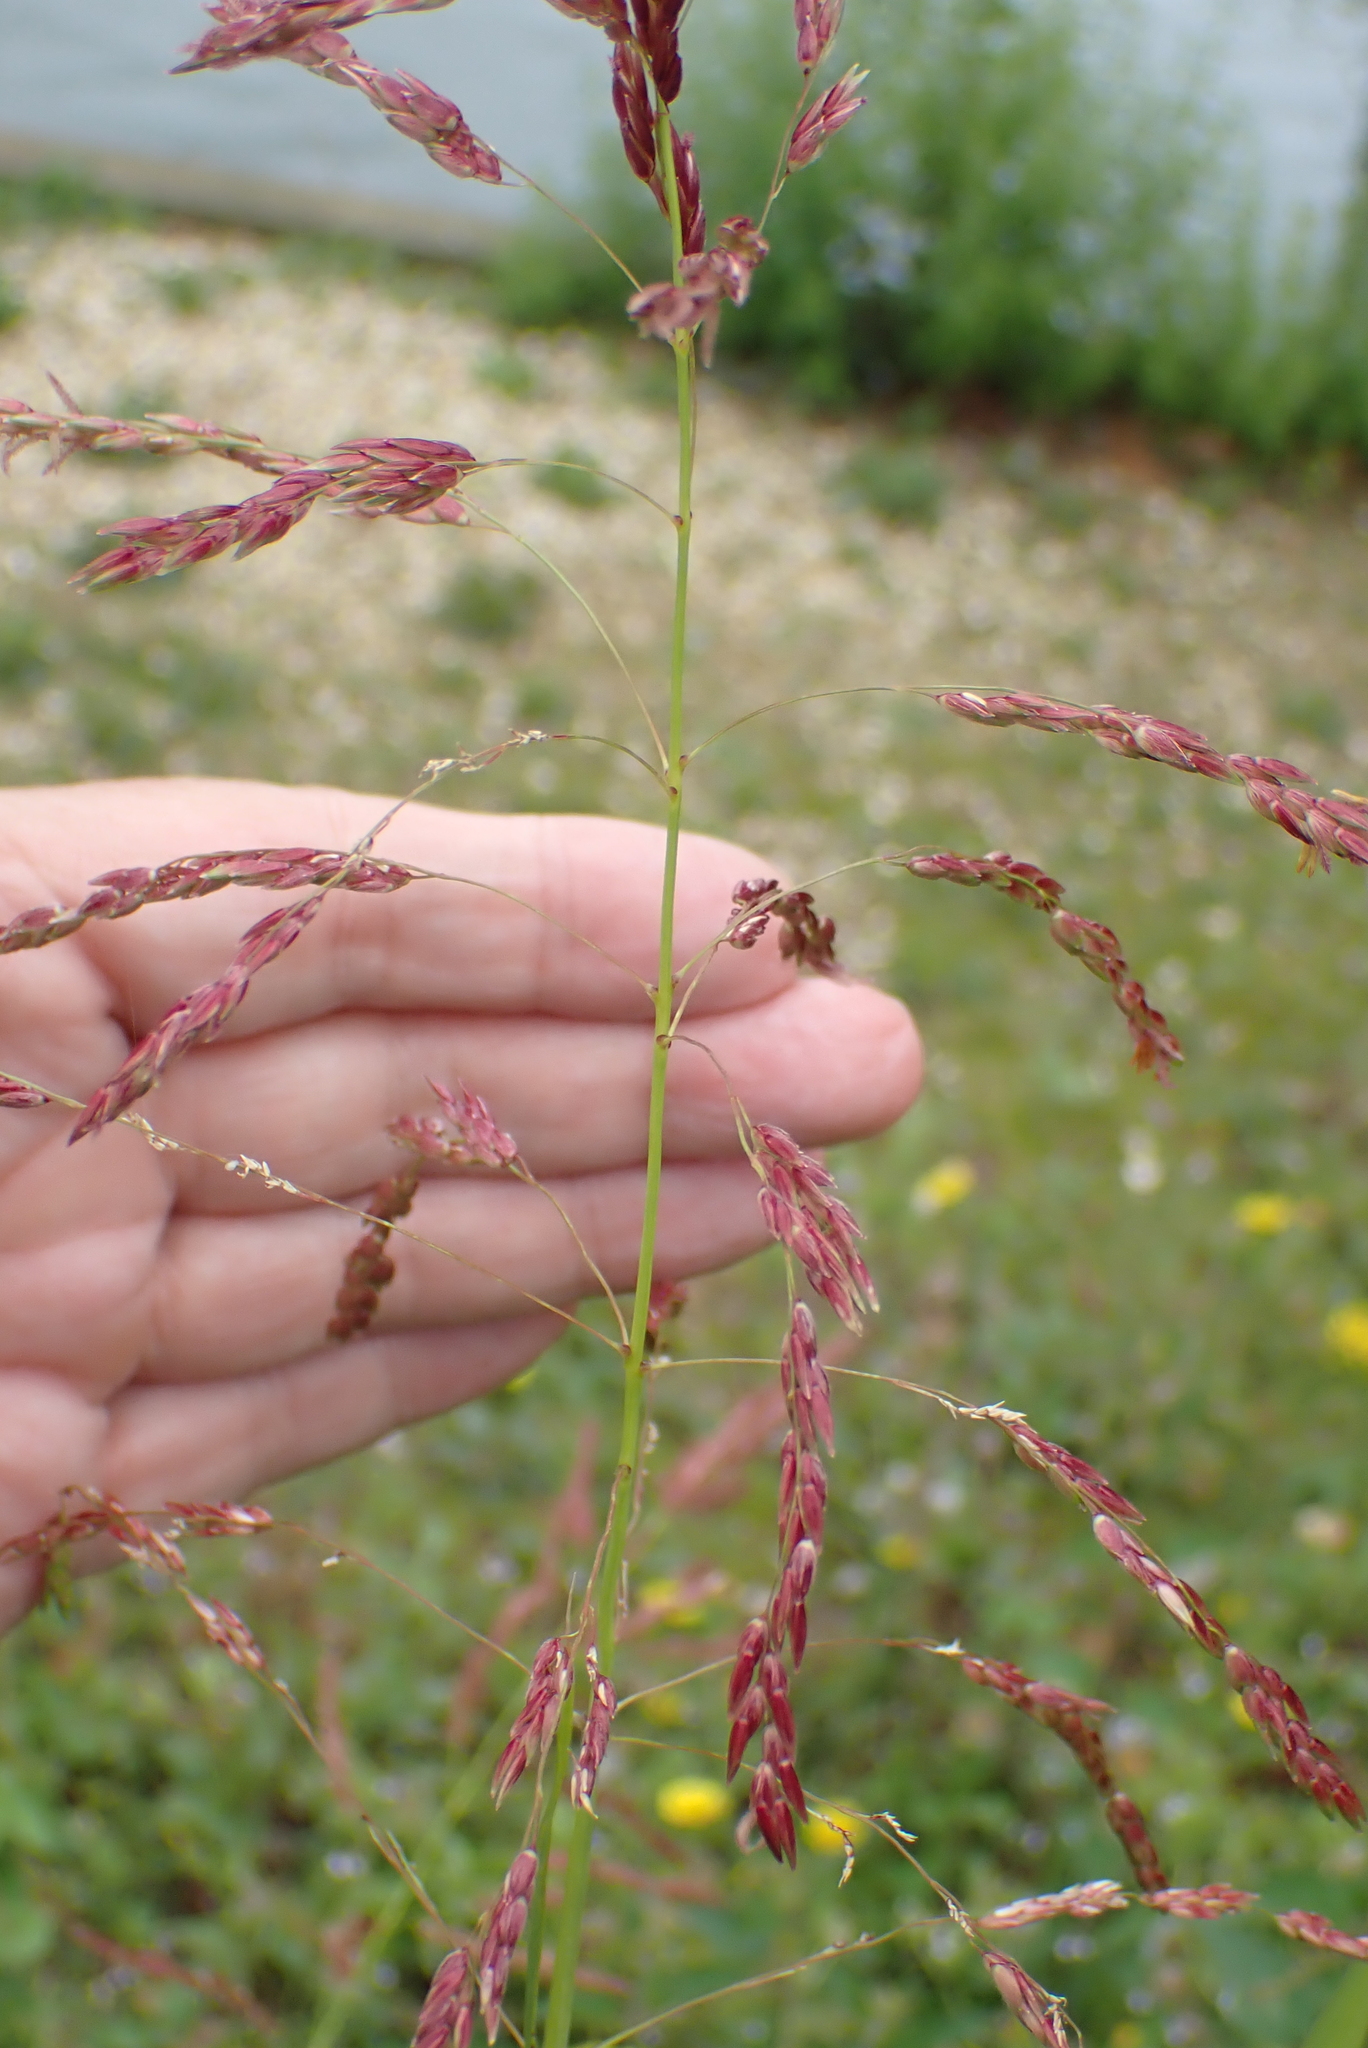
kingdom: Plantae
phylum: Tracheophyta
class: Liliopsida
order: Poales
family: Poaceae
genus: Sorghum
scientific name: Sorghum halepense
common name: Johnson-grass
